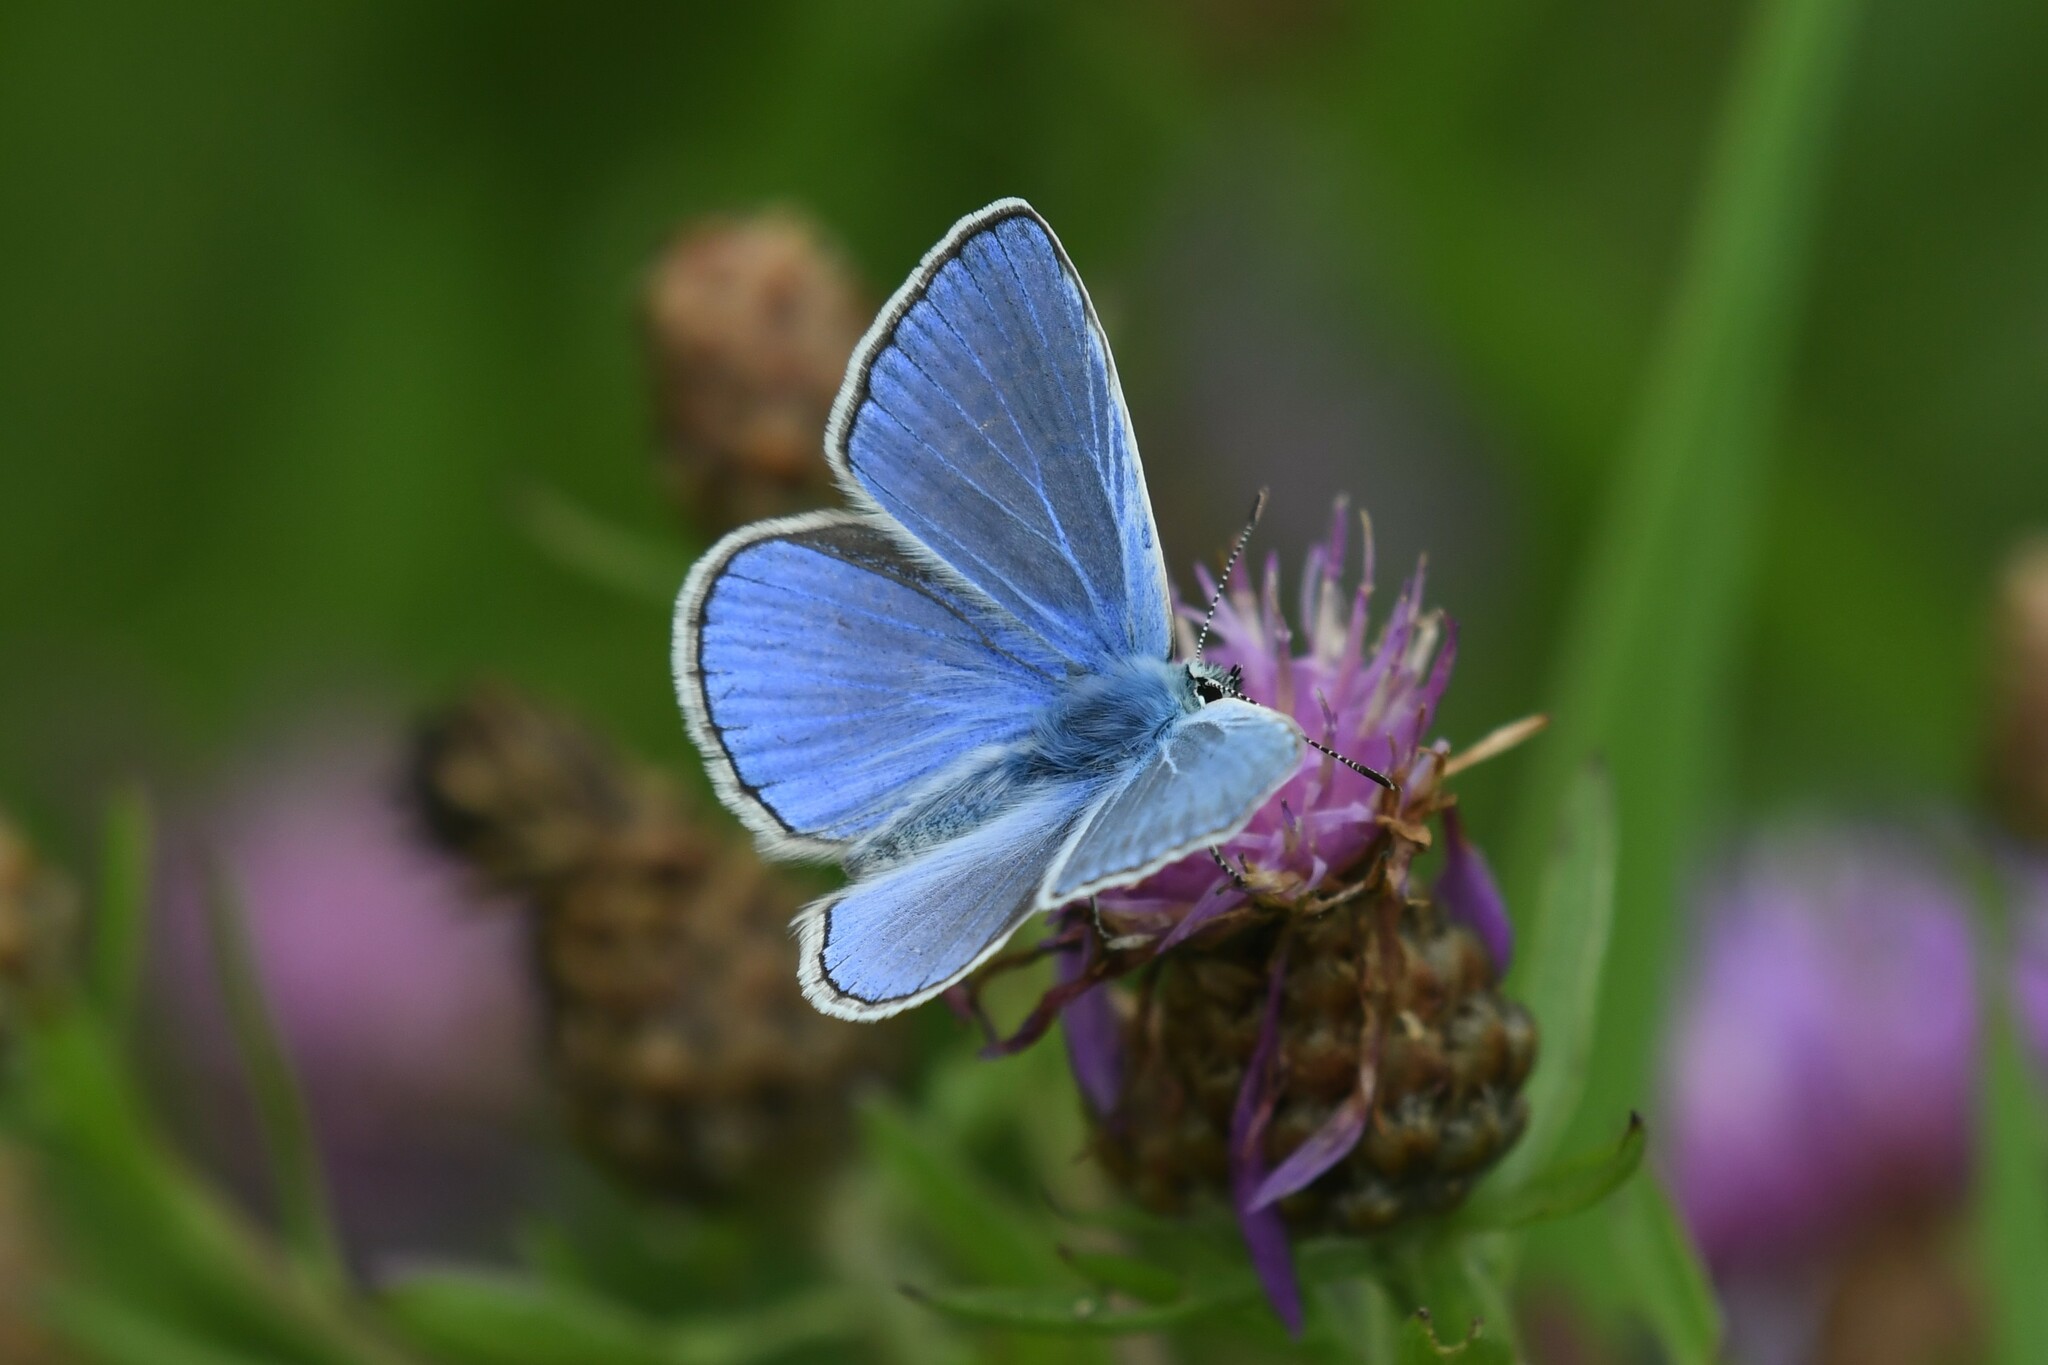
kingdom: Animalia
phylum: Arthropoda
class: Insecta
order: Lepidoptera
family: Lycaenidae
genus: Polyommatus
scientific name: Polyommatus icarus
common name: Common blue
